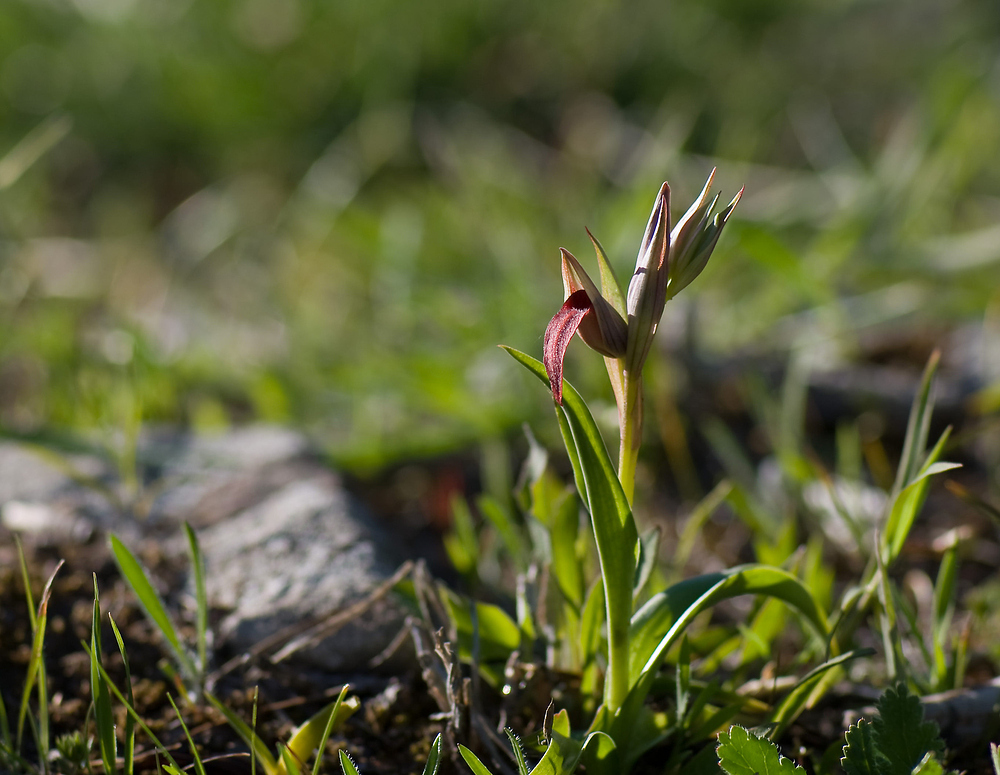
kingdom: Plantae
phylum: Tracheophyta
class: Liliopsida
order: Asparagales
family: Orchidaceae
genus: Serapias
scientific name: Serapias strictiflora
